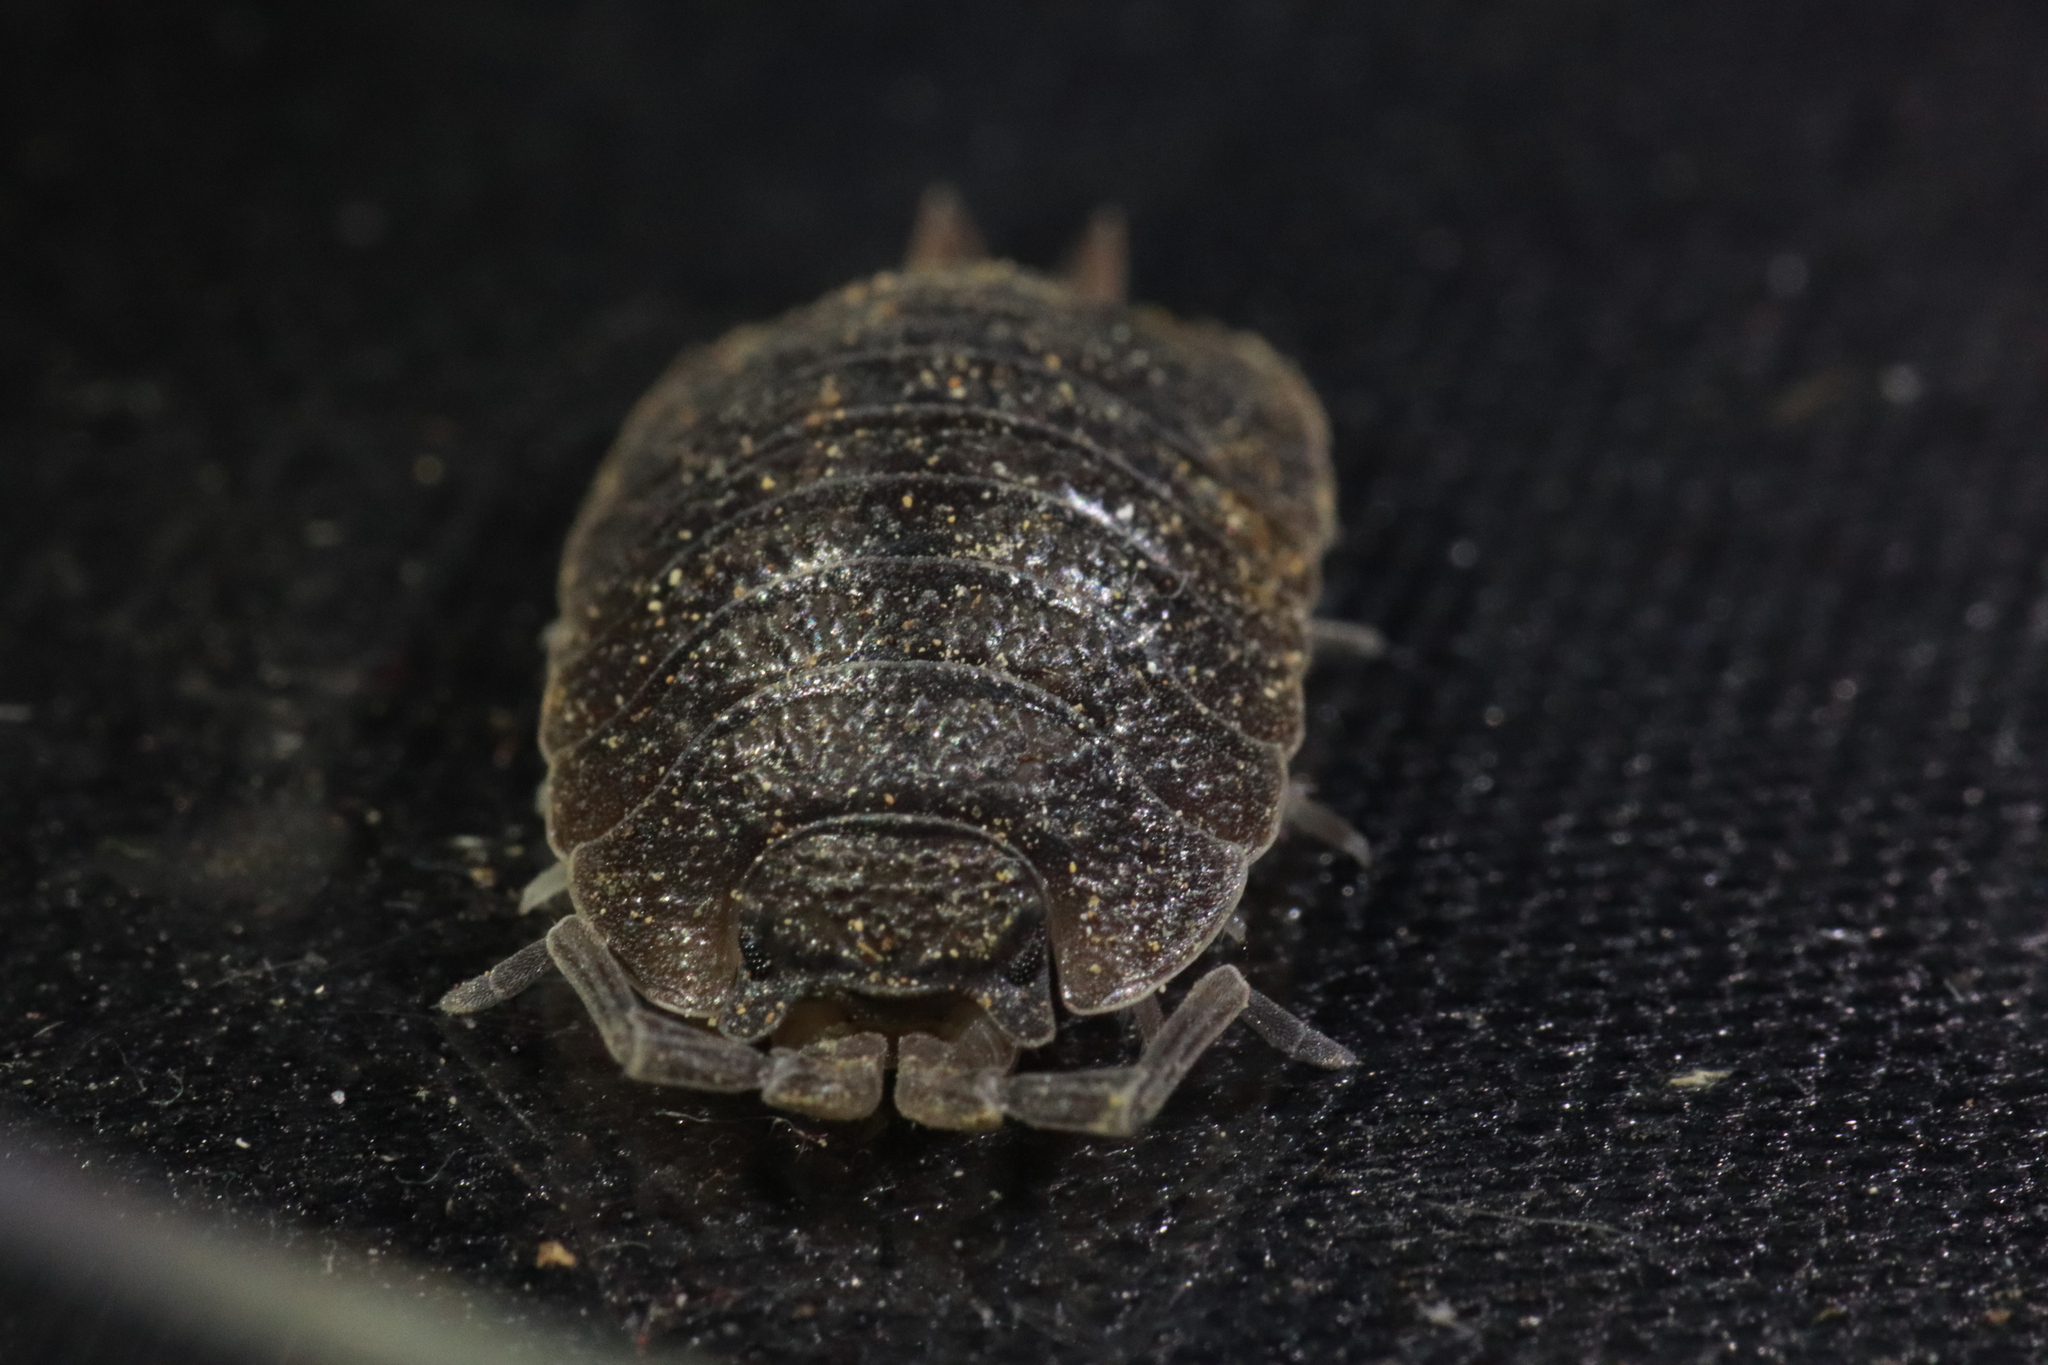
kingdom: Animalia
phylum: Arthropoda
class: Malacostraca
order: Isopoda
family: Porcellionidae
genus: Porcellio
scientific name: Porcellio dilatatus
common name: Isopod
